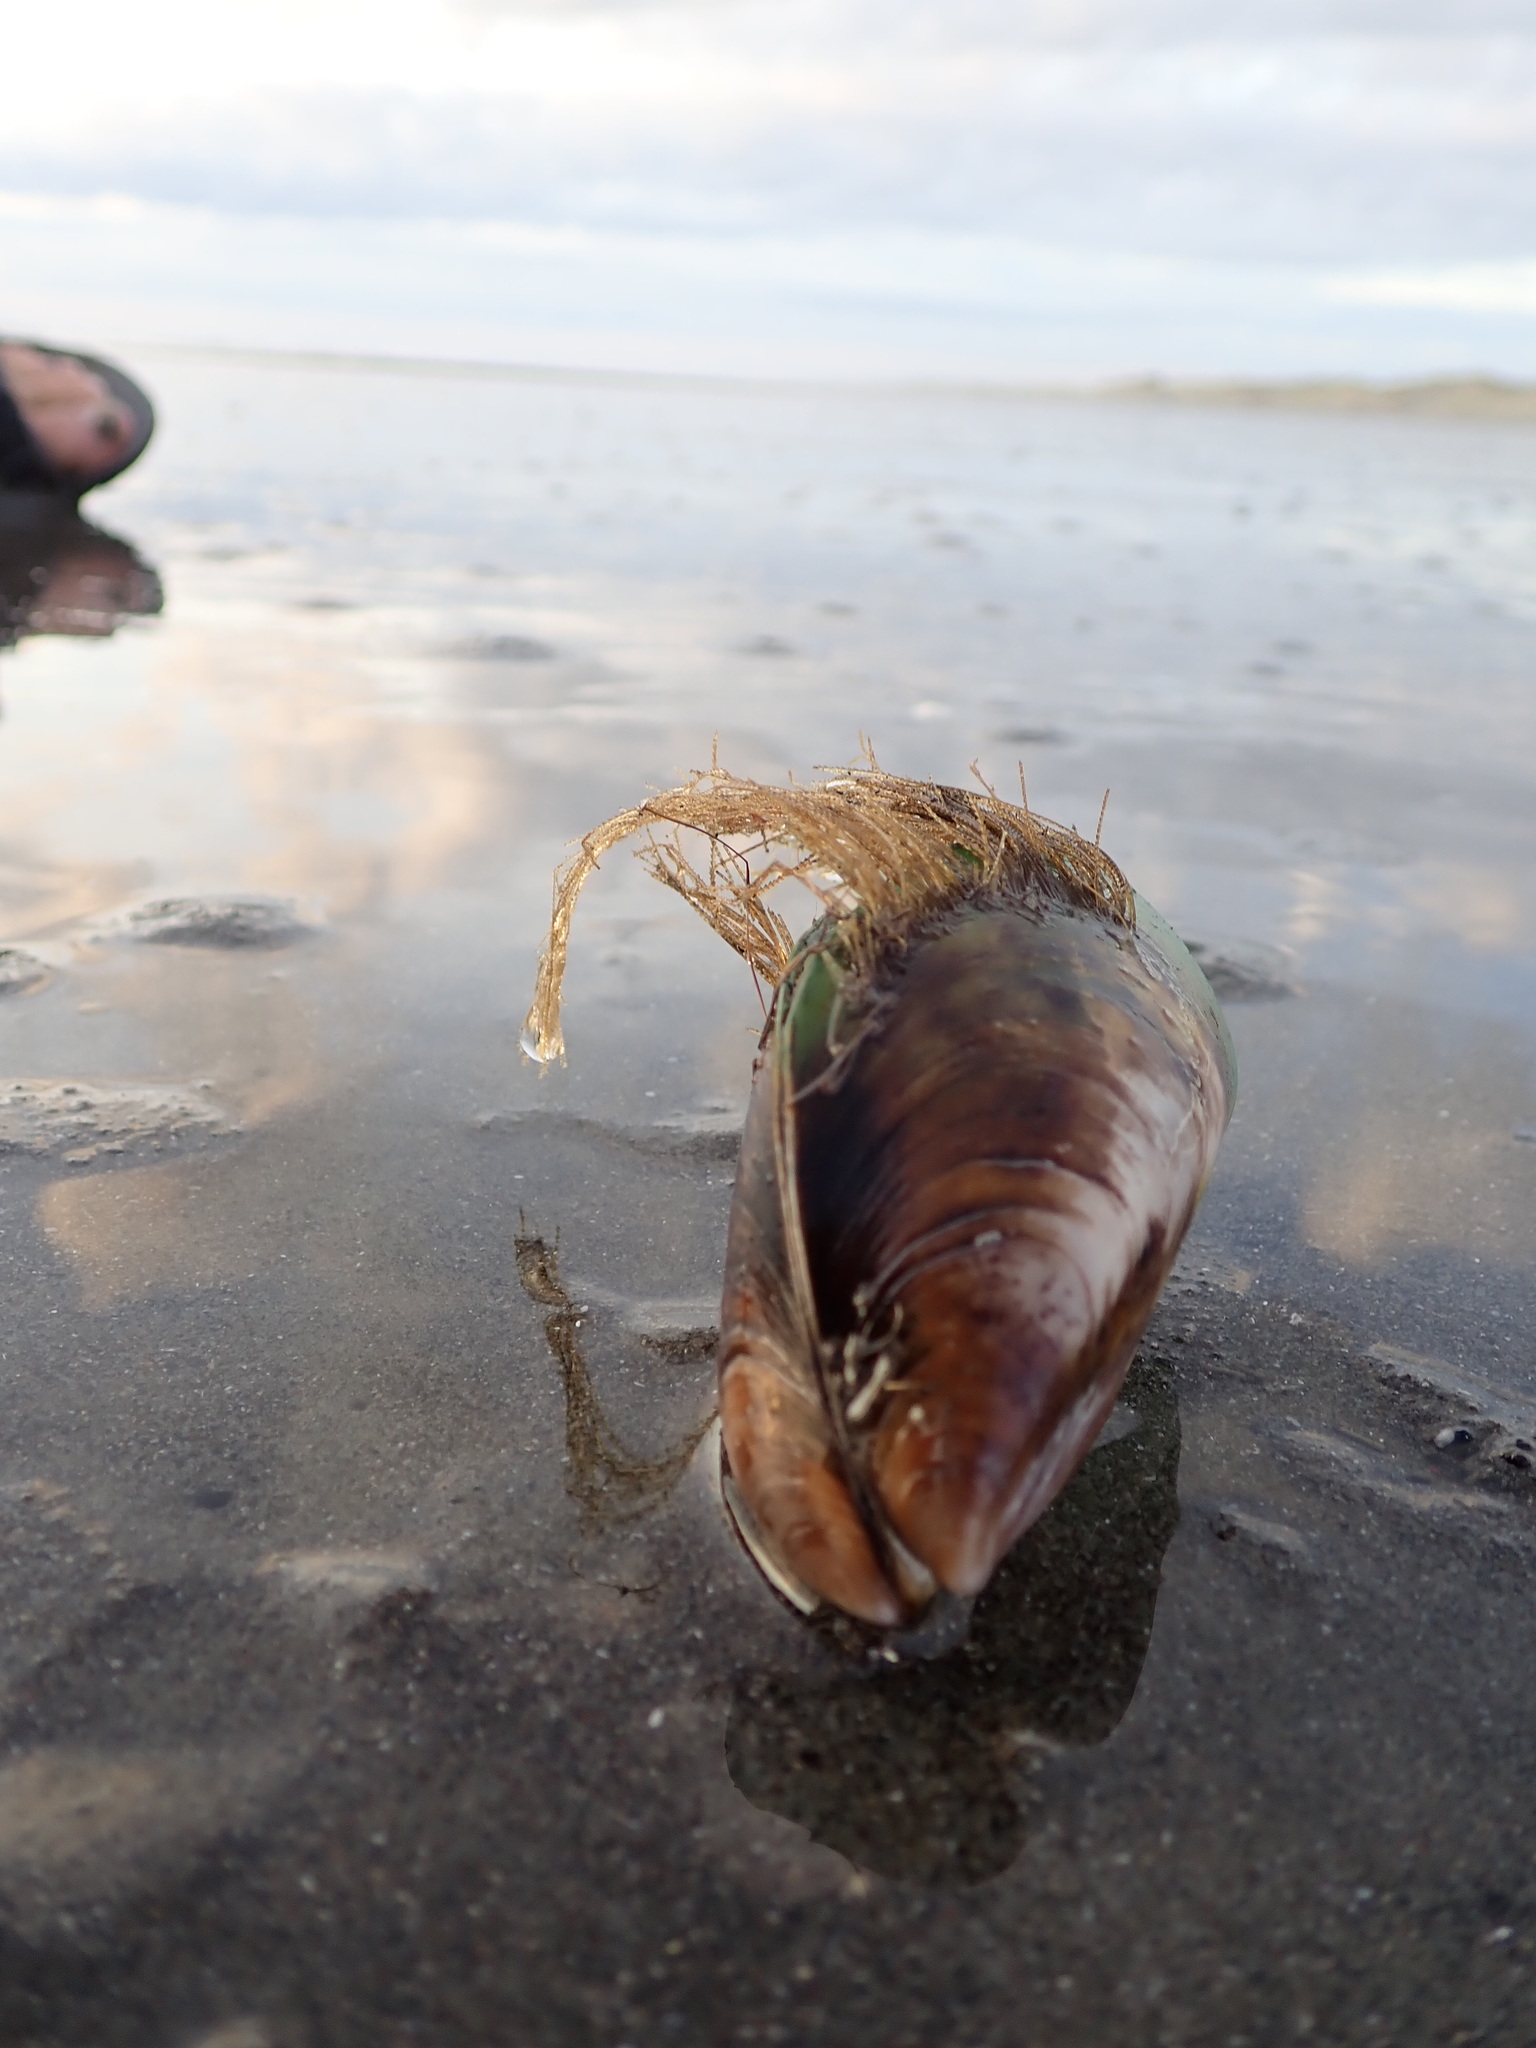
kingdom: Animalia
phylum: Cnidaria
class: Hydrozoa
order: Leptothecata
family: Sertulariidae
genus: Amphisbetia
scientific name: Amphisbetia bispinosa
